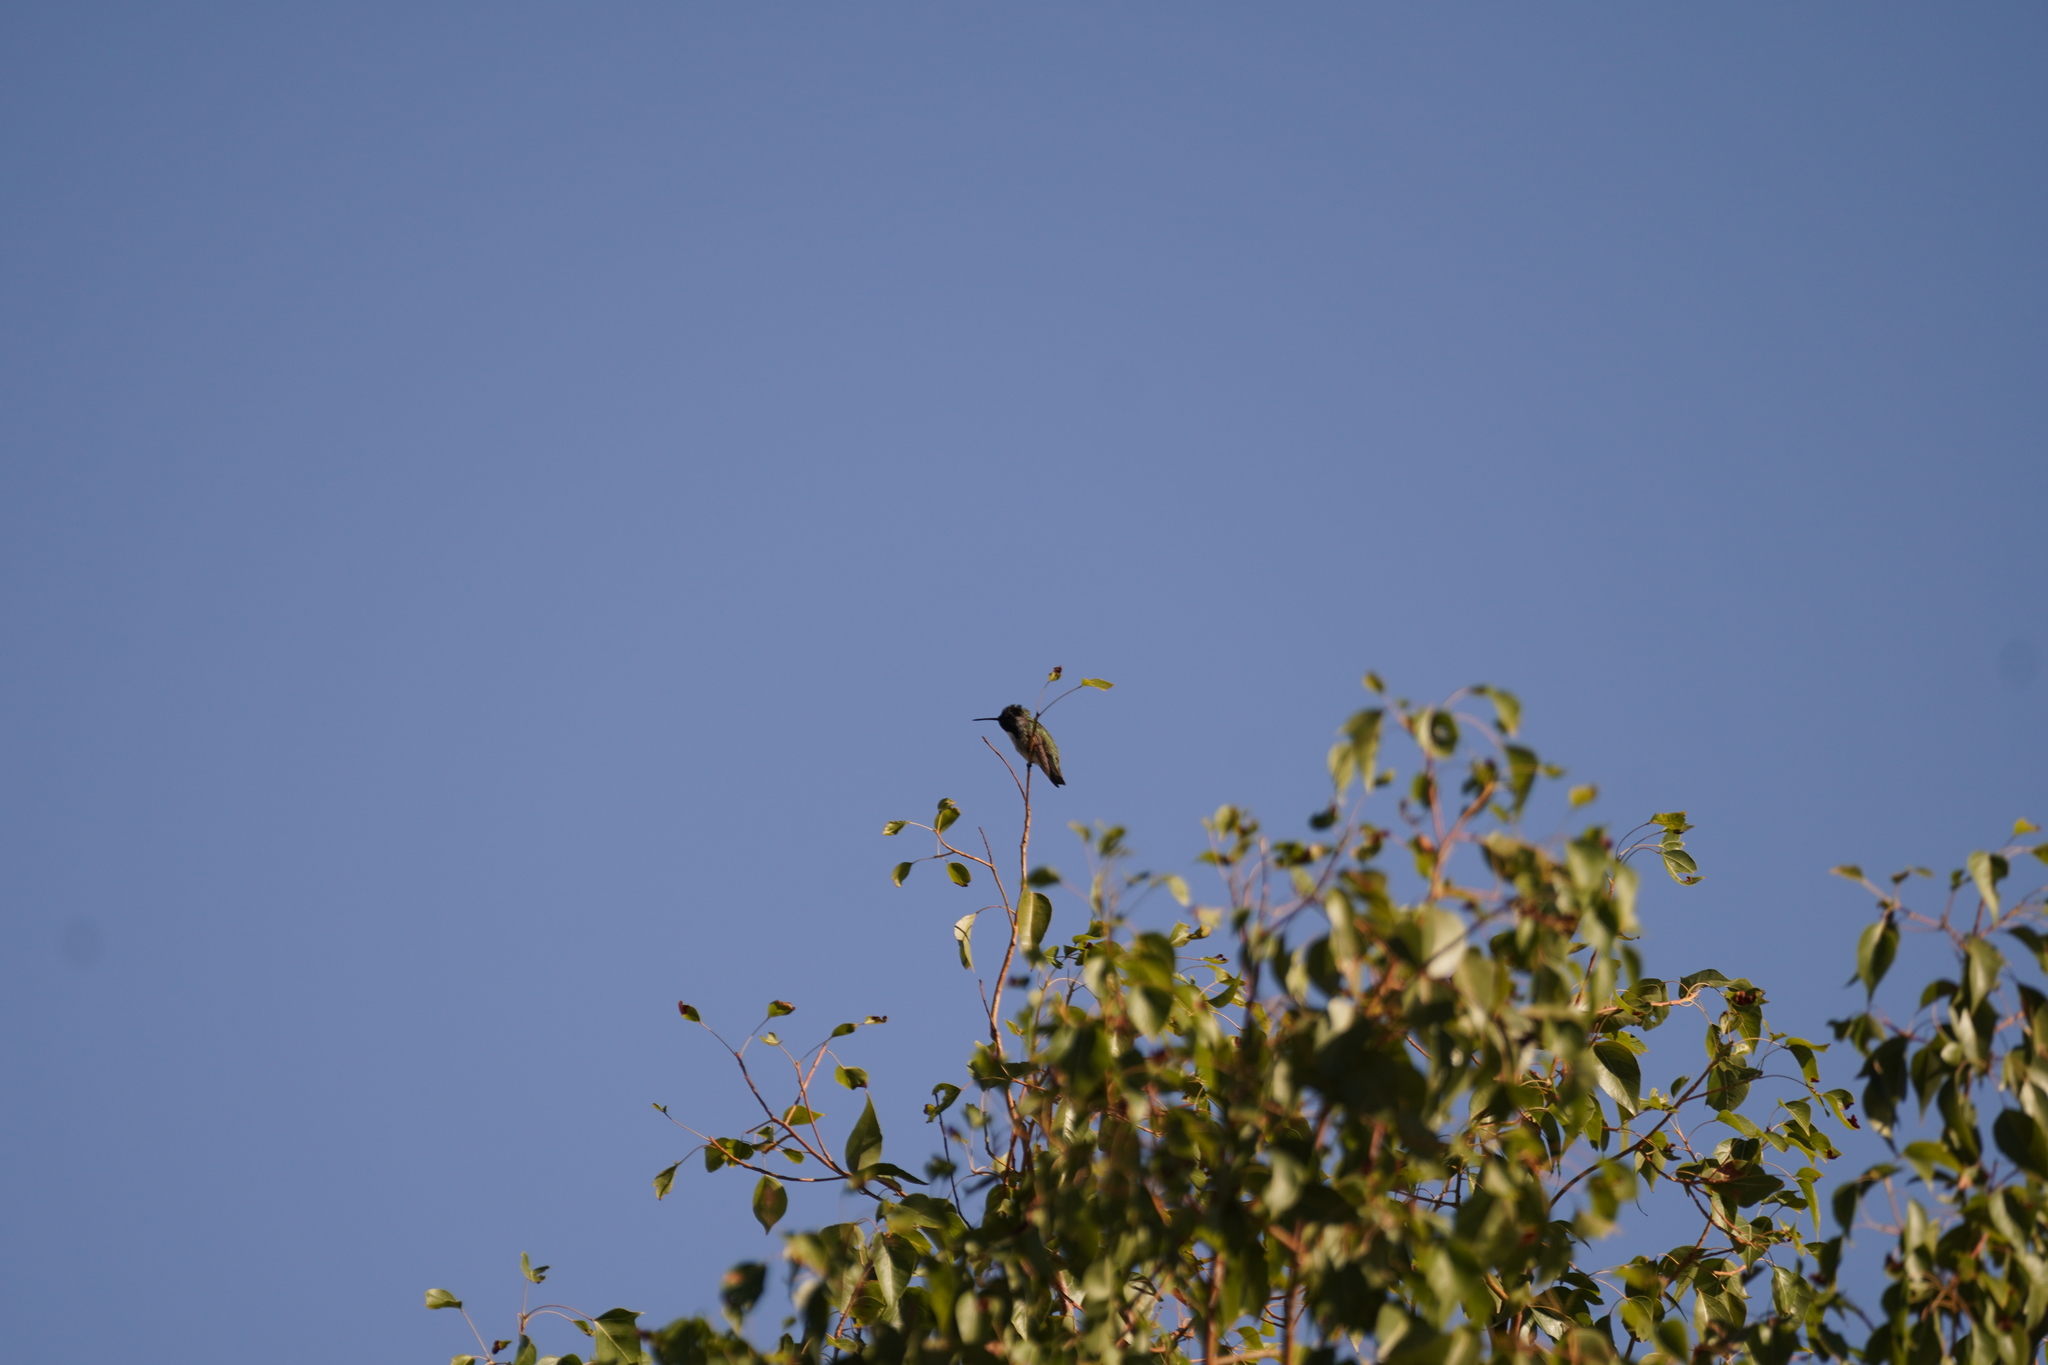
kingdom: Animalia
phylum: Chordata
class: Aves
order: Apodiformes
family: Trochilidae
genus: Calypte
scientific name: Calypte costae
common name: Costa's hummingbird
